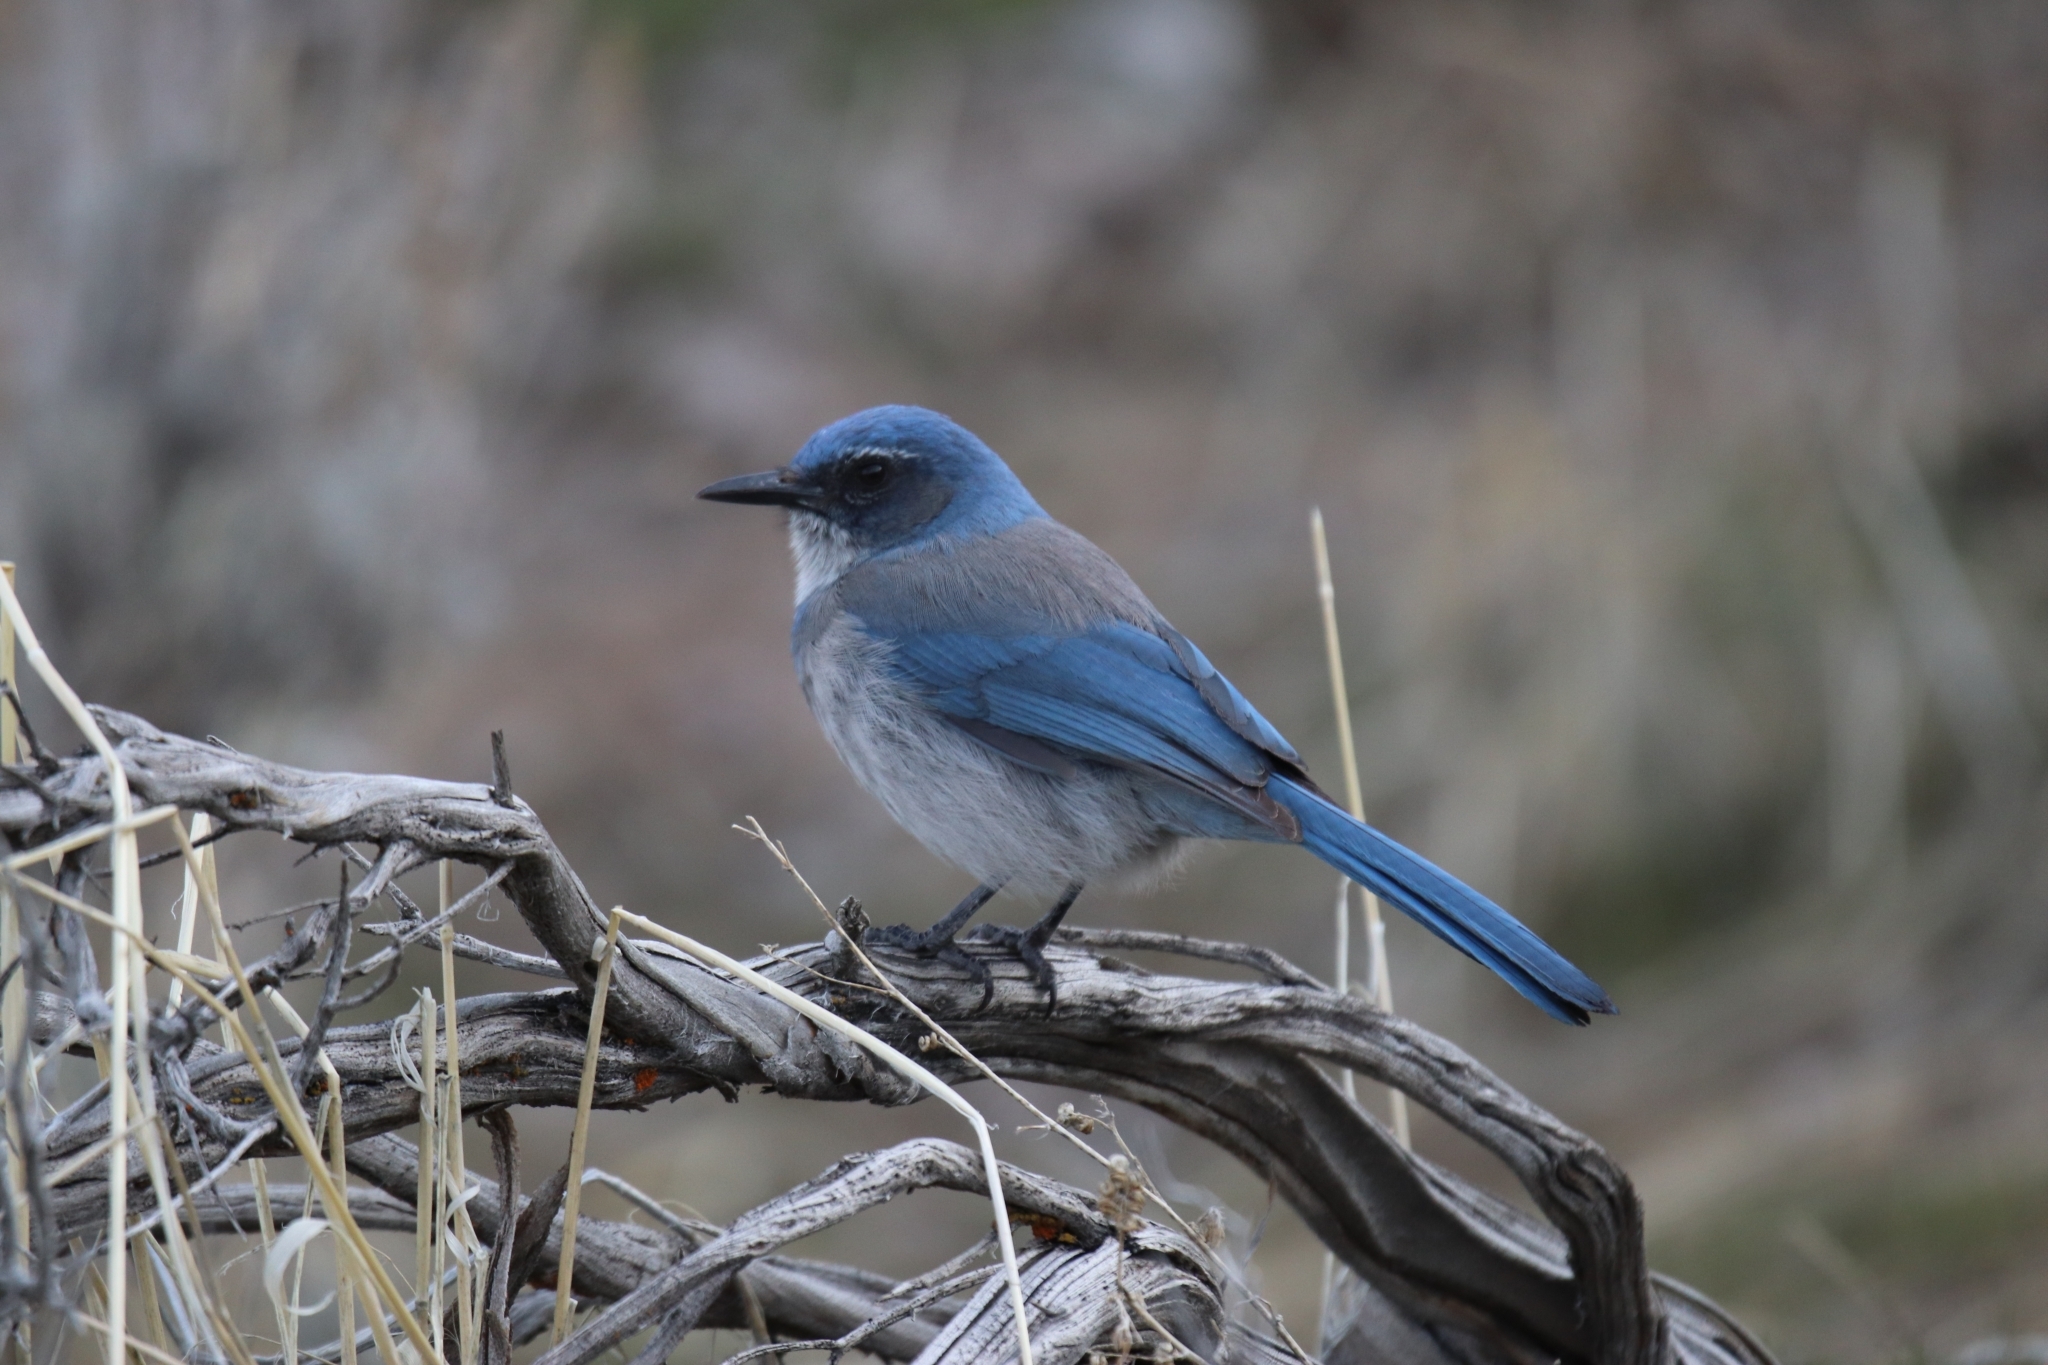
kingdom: Animalia
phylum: Chordata
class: Aves
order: Passeriformes
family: Corvidae
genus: Aphelocoma
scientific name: Aphelocoma woodhouseii
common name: Woodhouse's scrub-jay
